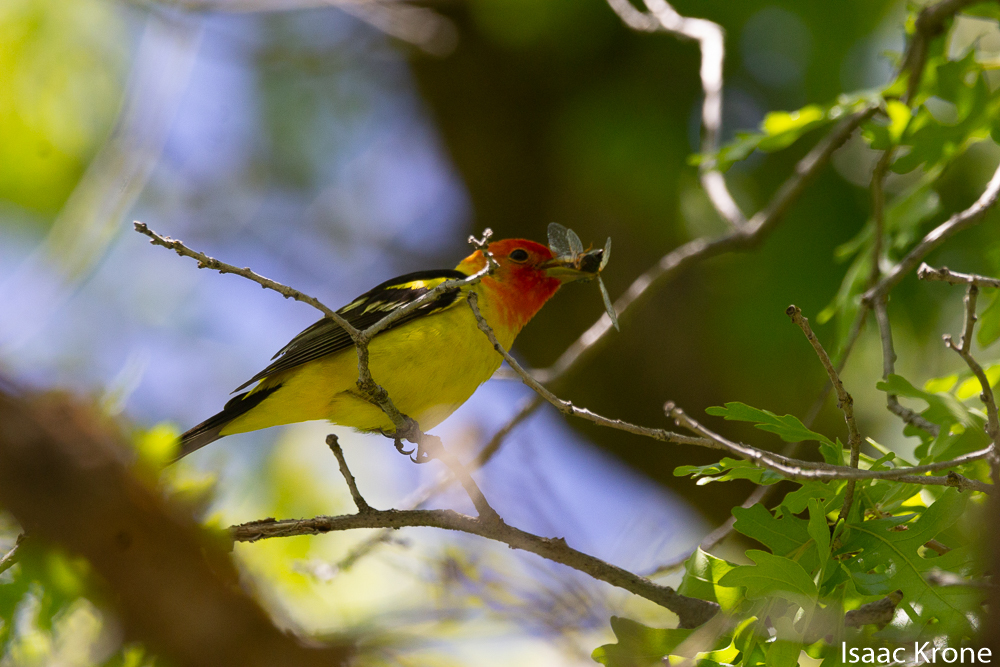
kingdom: Animalia
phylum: Chordata
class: Aves
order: Passeriformes
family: Cardinalidae
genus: Piranga
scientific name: Piranga ludoviciana
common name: Western tanager
